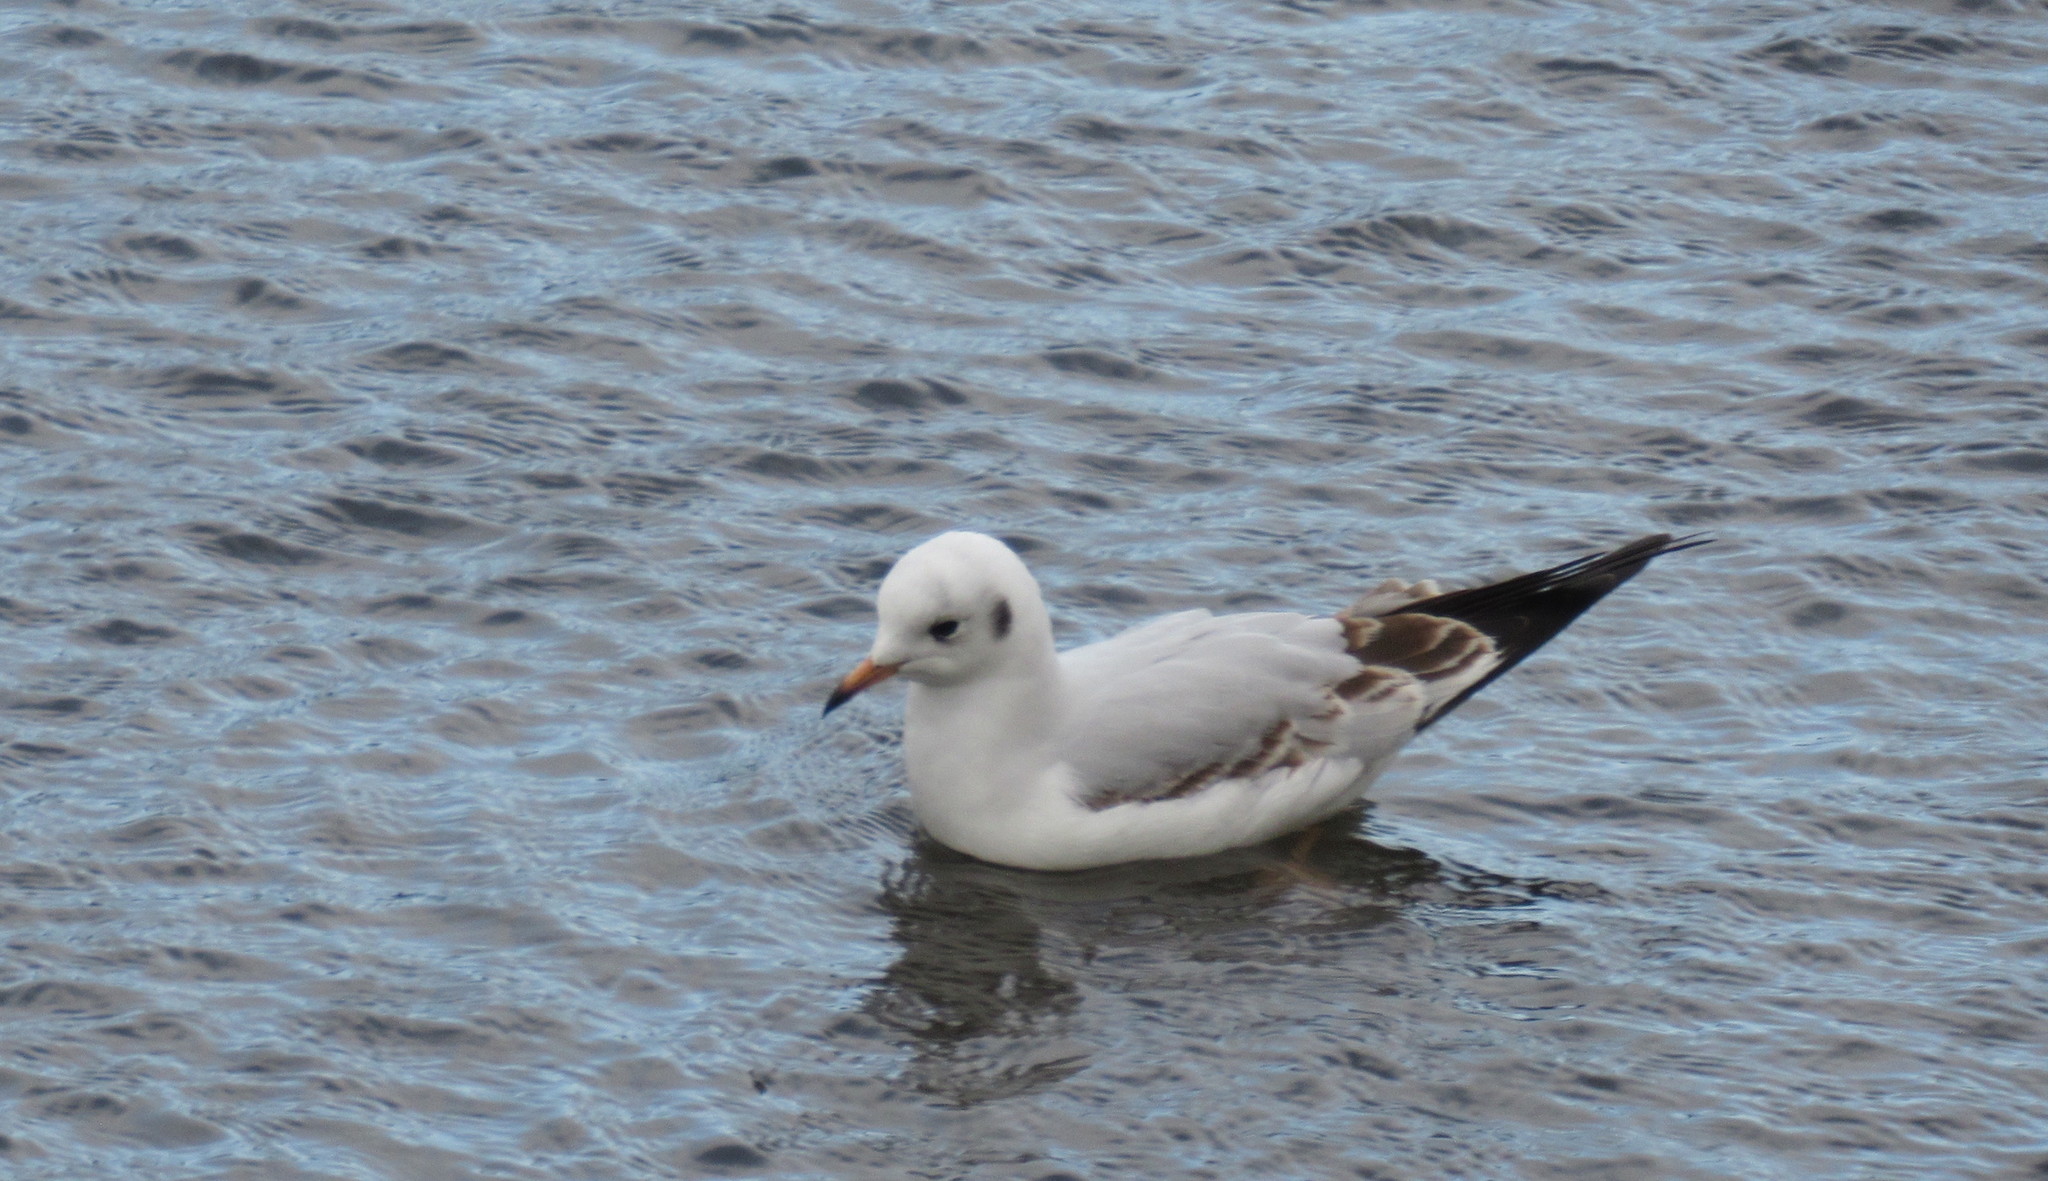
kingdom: Animalia
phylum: Chordata
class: Aves
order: Charadriiformes
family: Laridae
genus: Chroicocephalus
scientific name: Chroicocephalus ridibundus
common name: Black-headed gull
